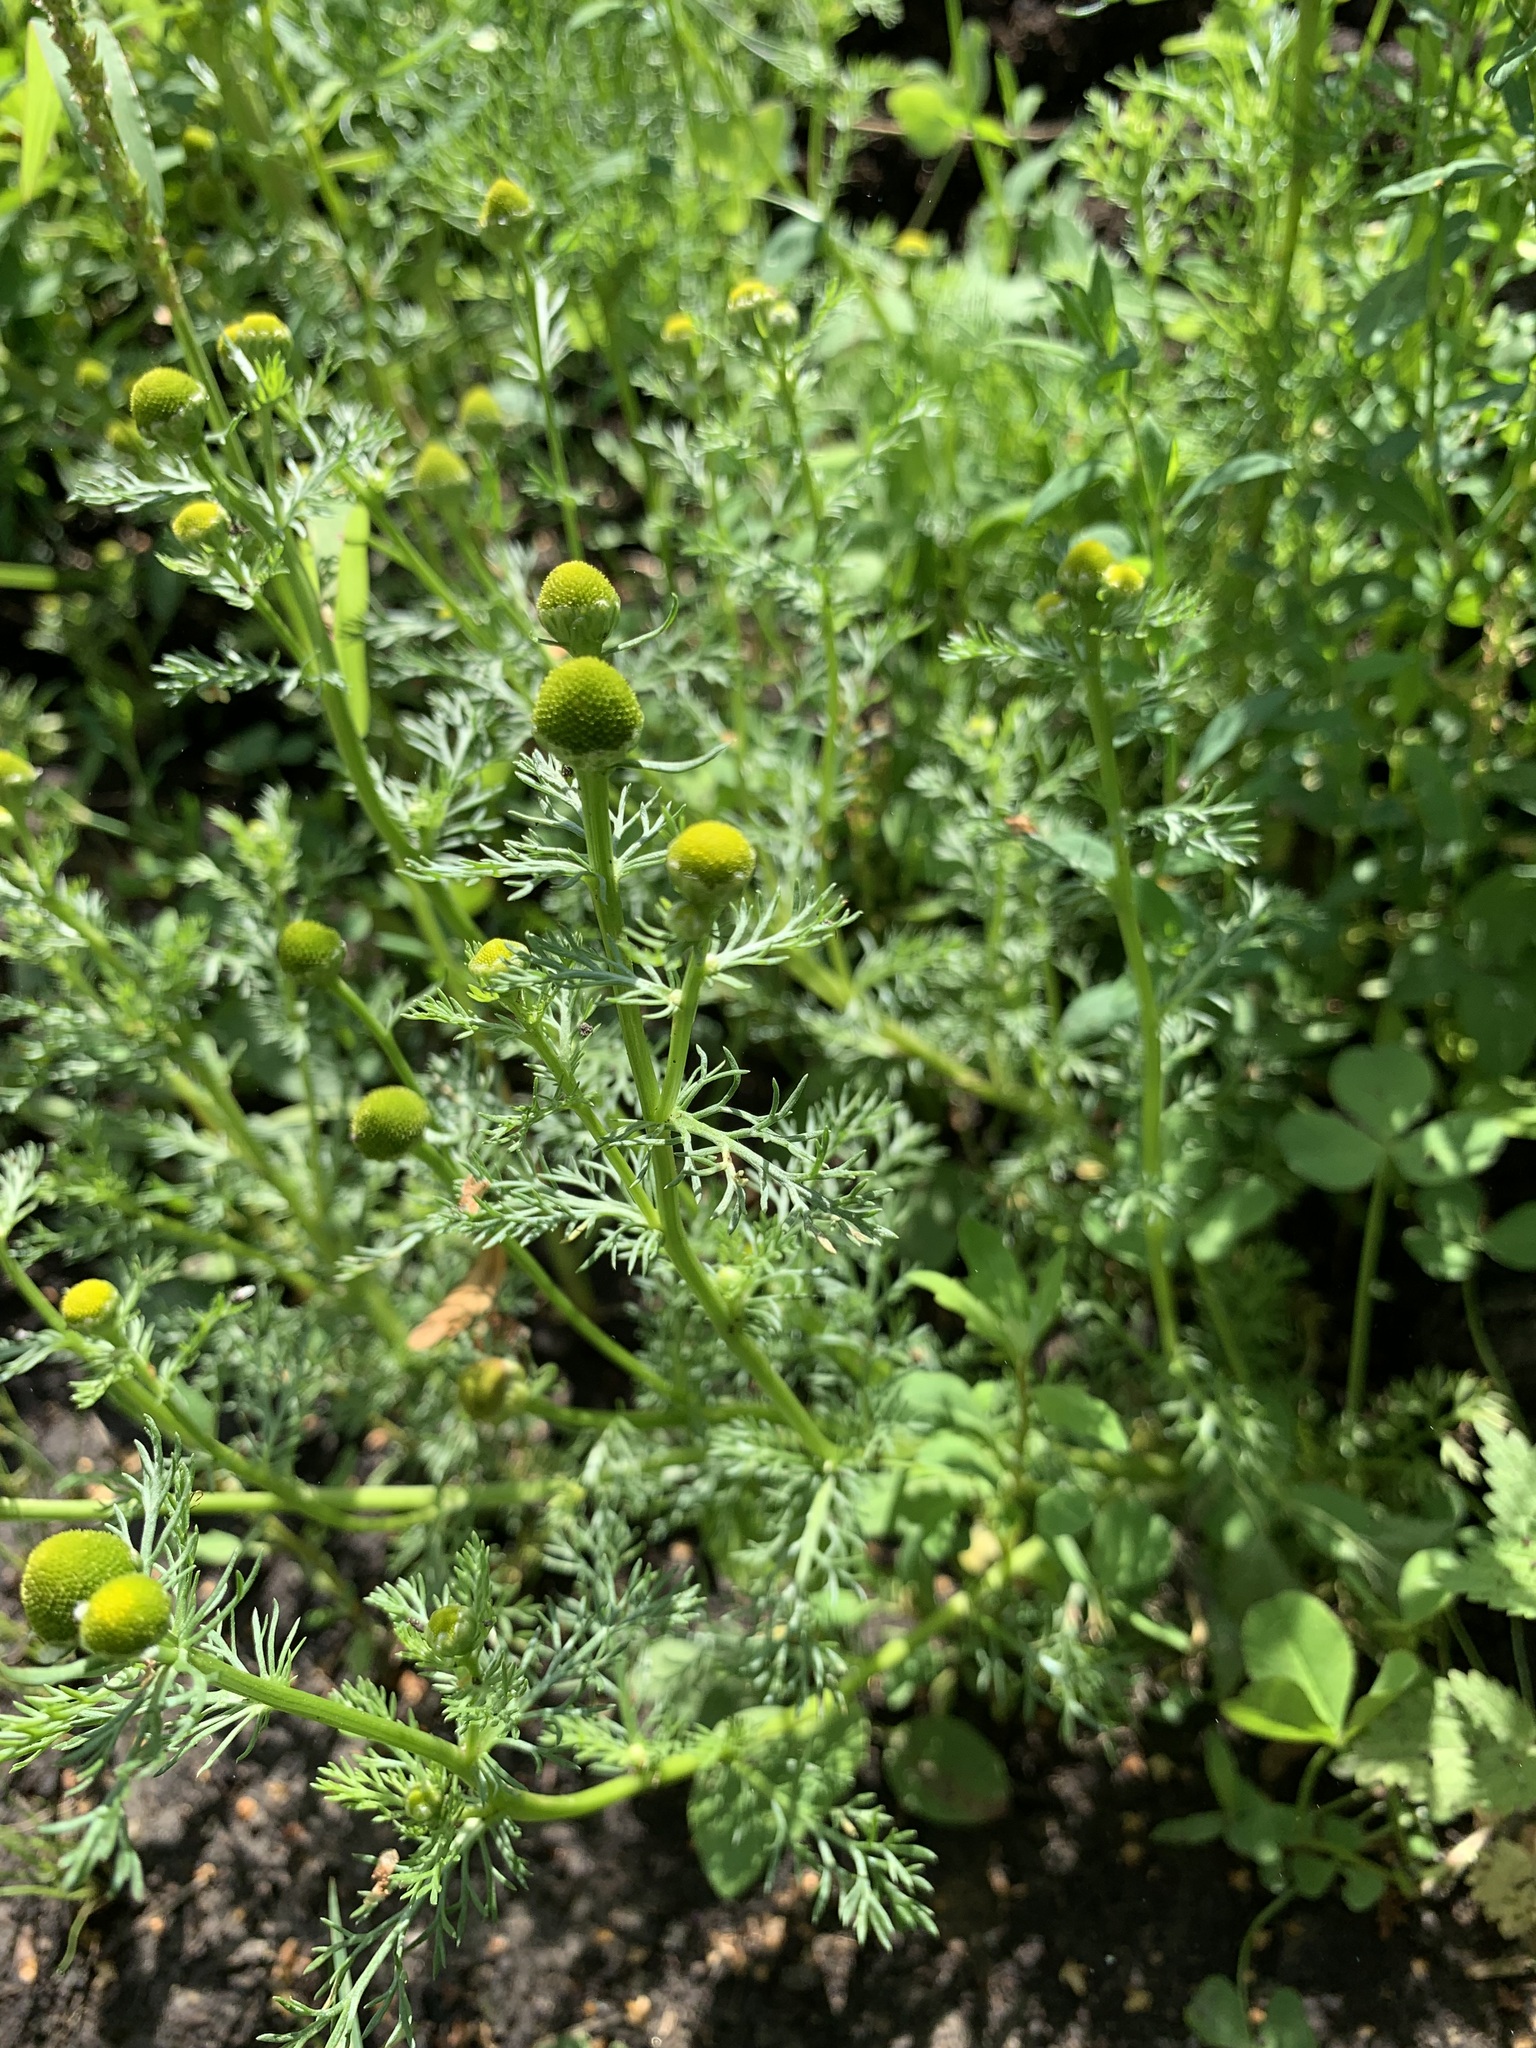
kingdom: Plantae
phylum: Tracheophyta
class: Magnoliopsida
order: Asterales
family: Asteraceae
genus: Matricaria
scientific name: Matricaria discoidea
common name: Disc mayweed
